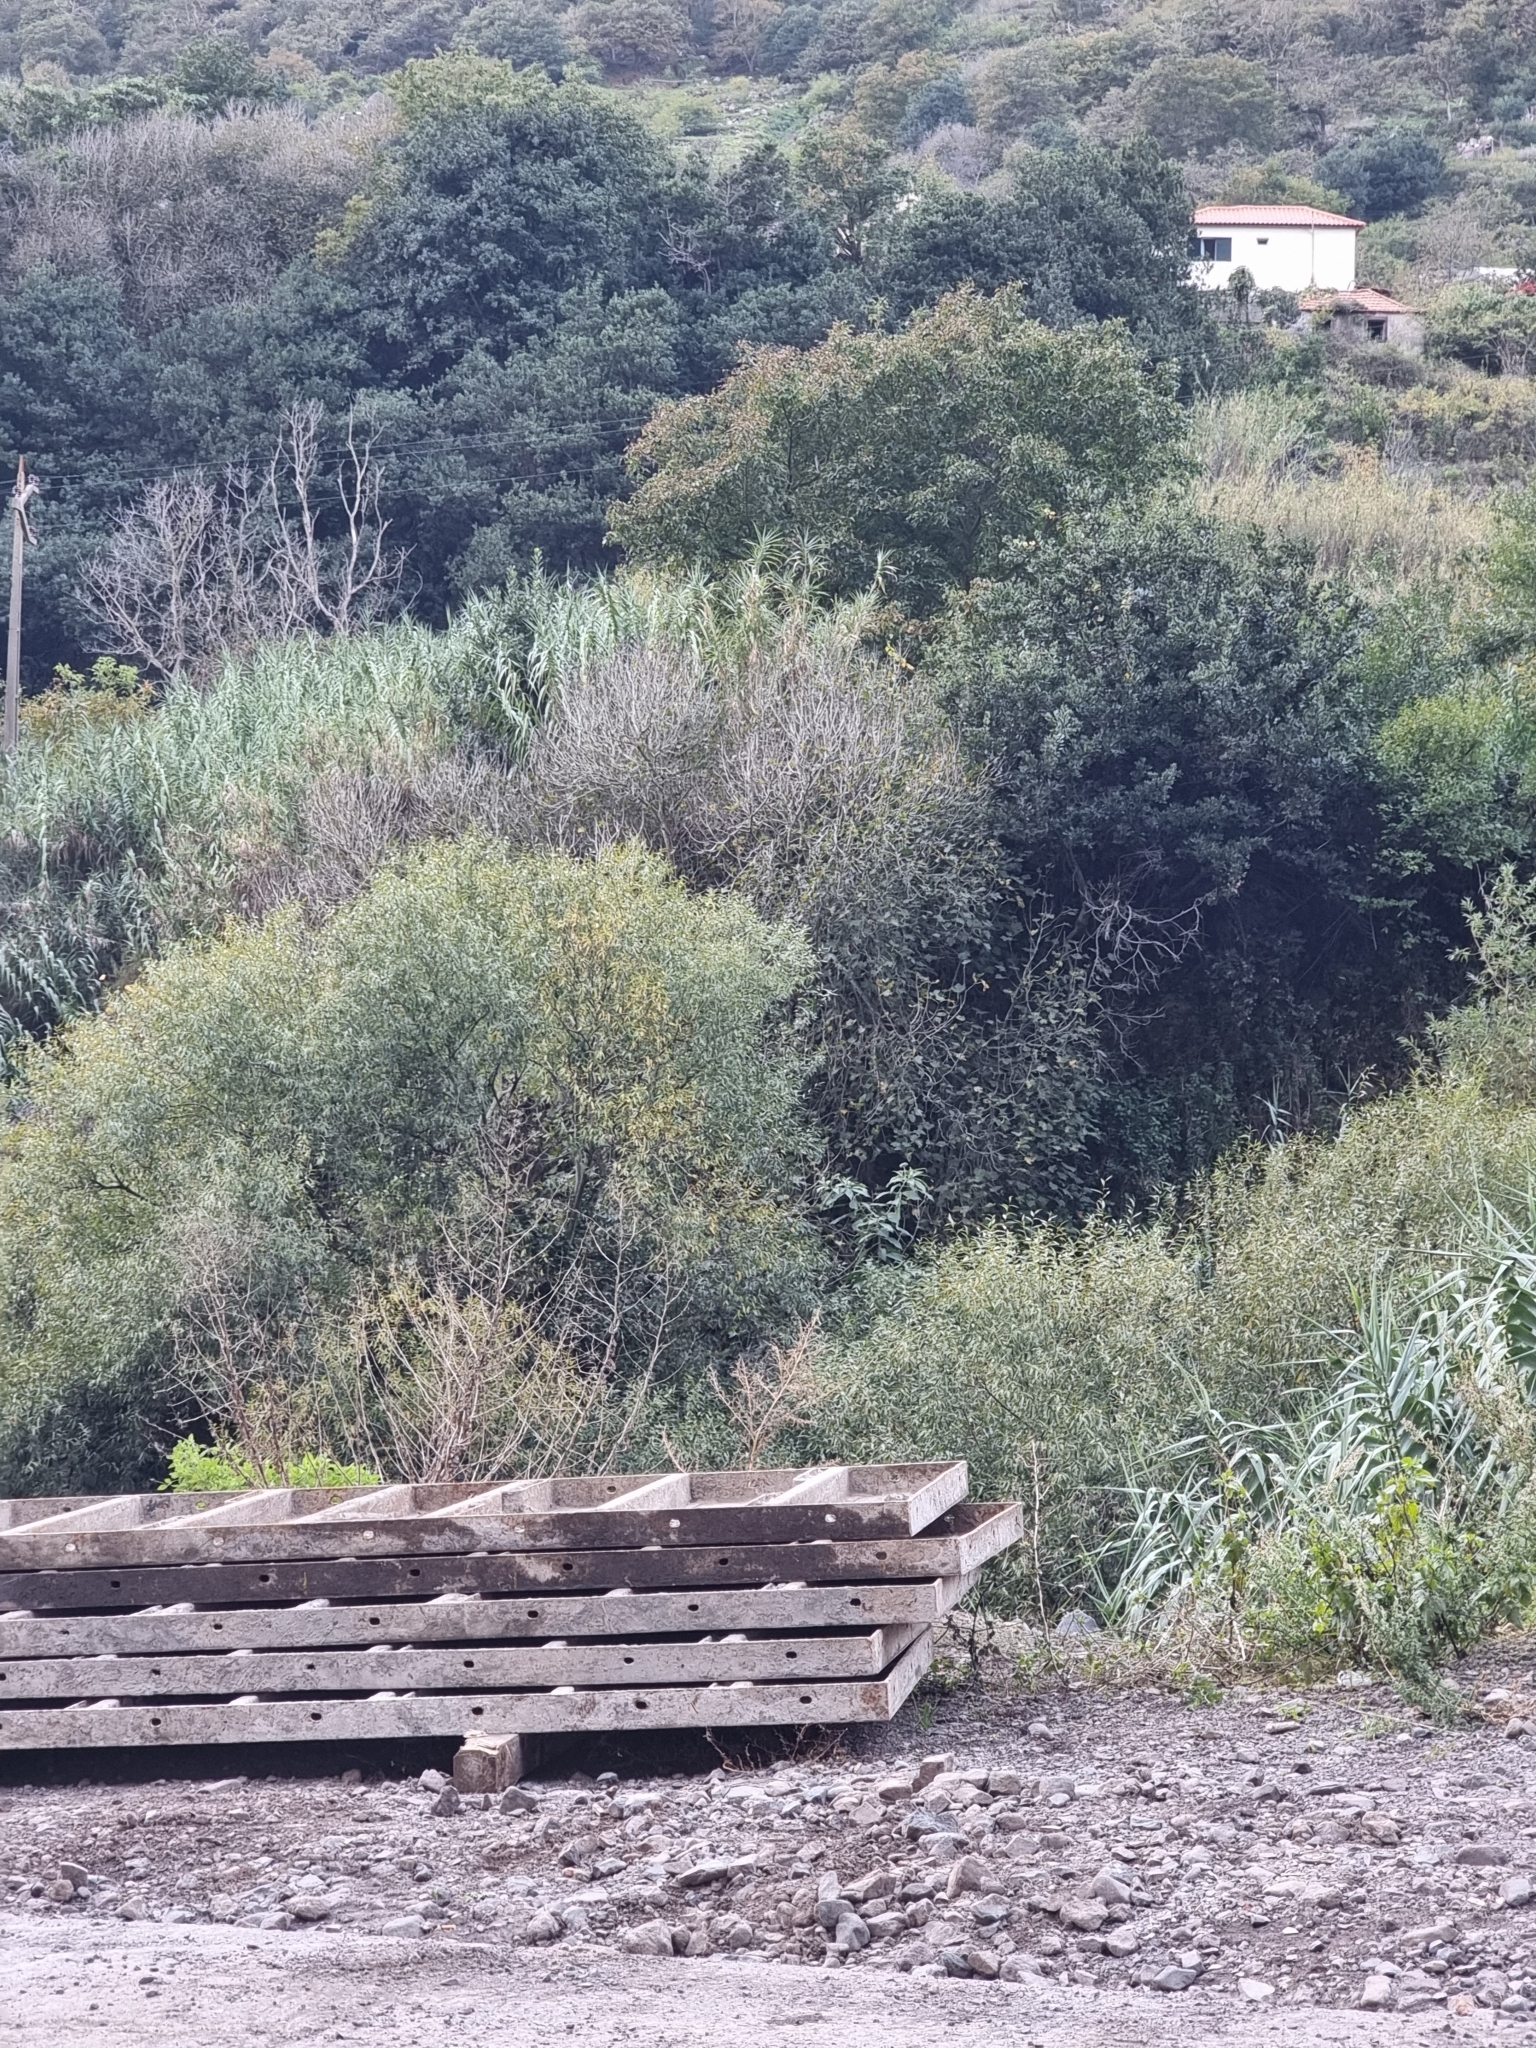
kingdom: Plantae
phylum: Tracheophyta
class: Magnoliopsida
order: Malpighiales
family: Salicaceae
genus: Salix
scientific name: Salix canariensis
